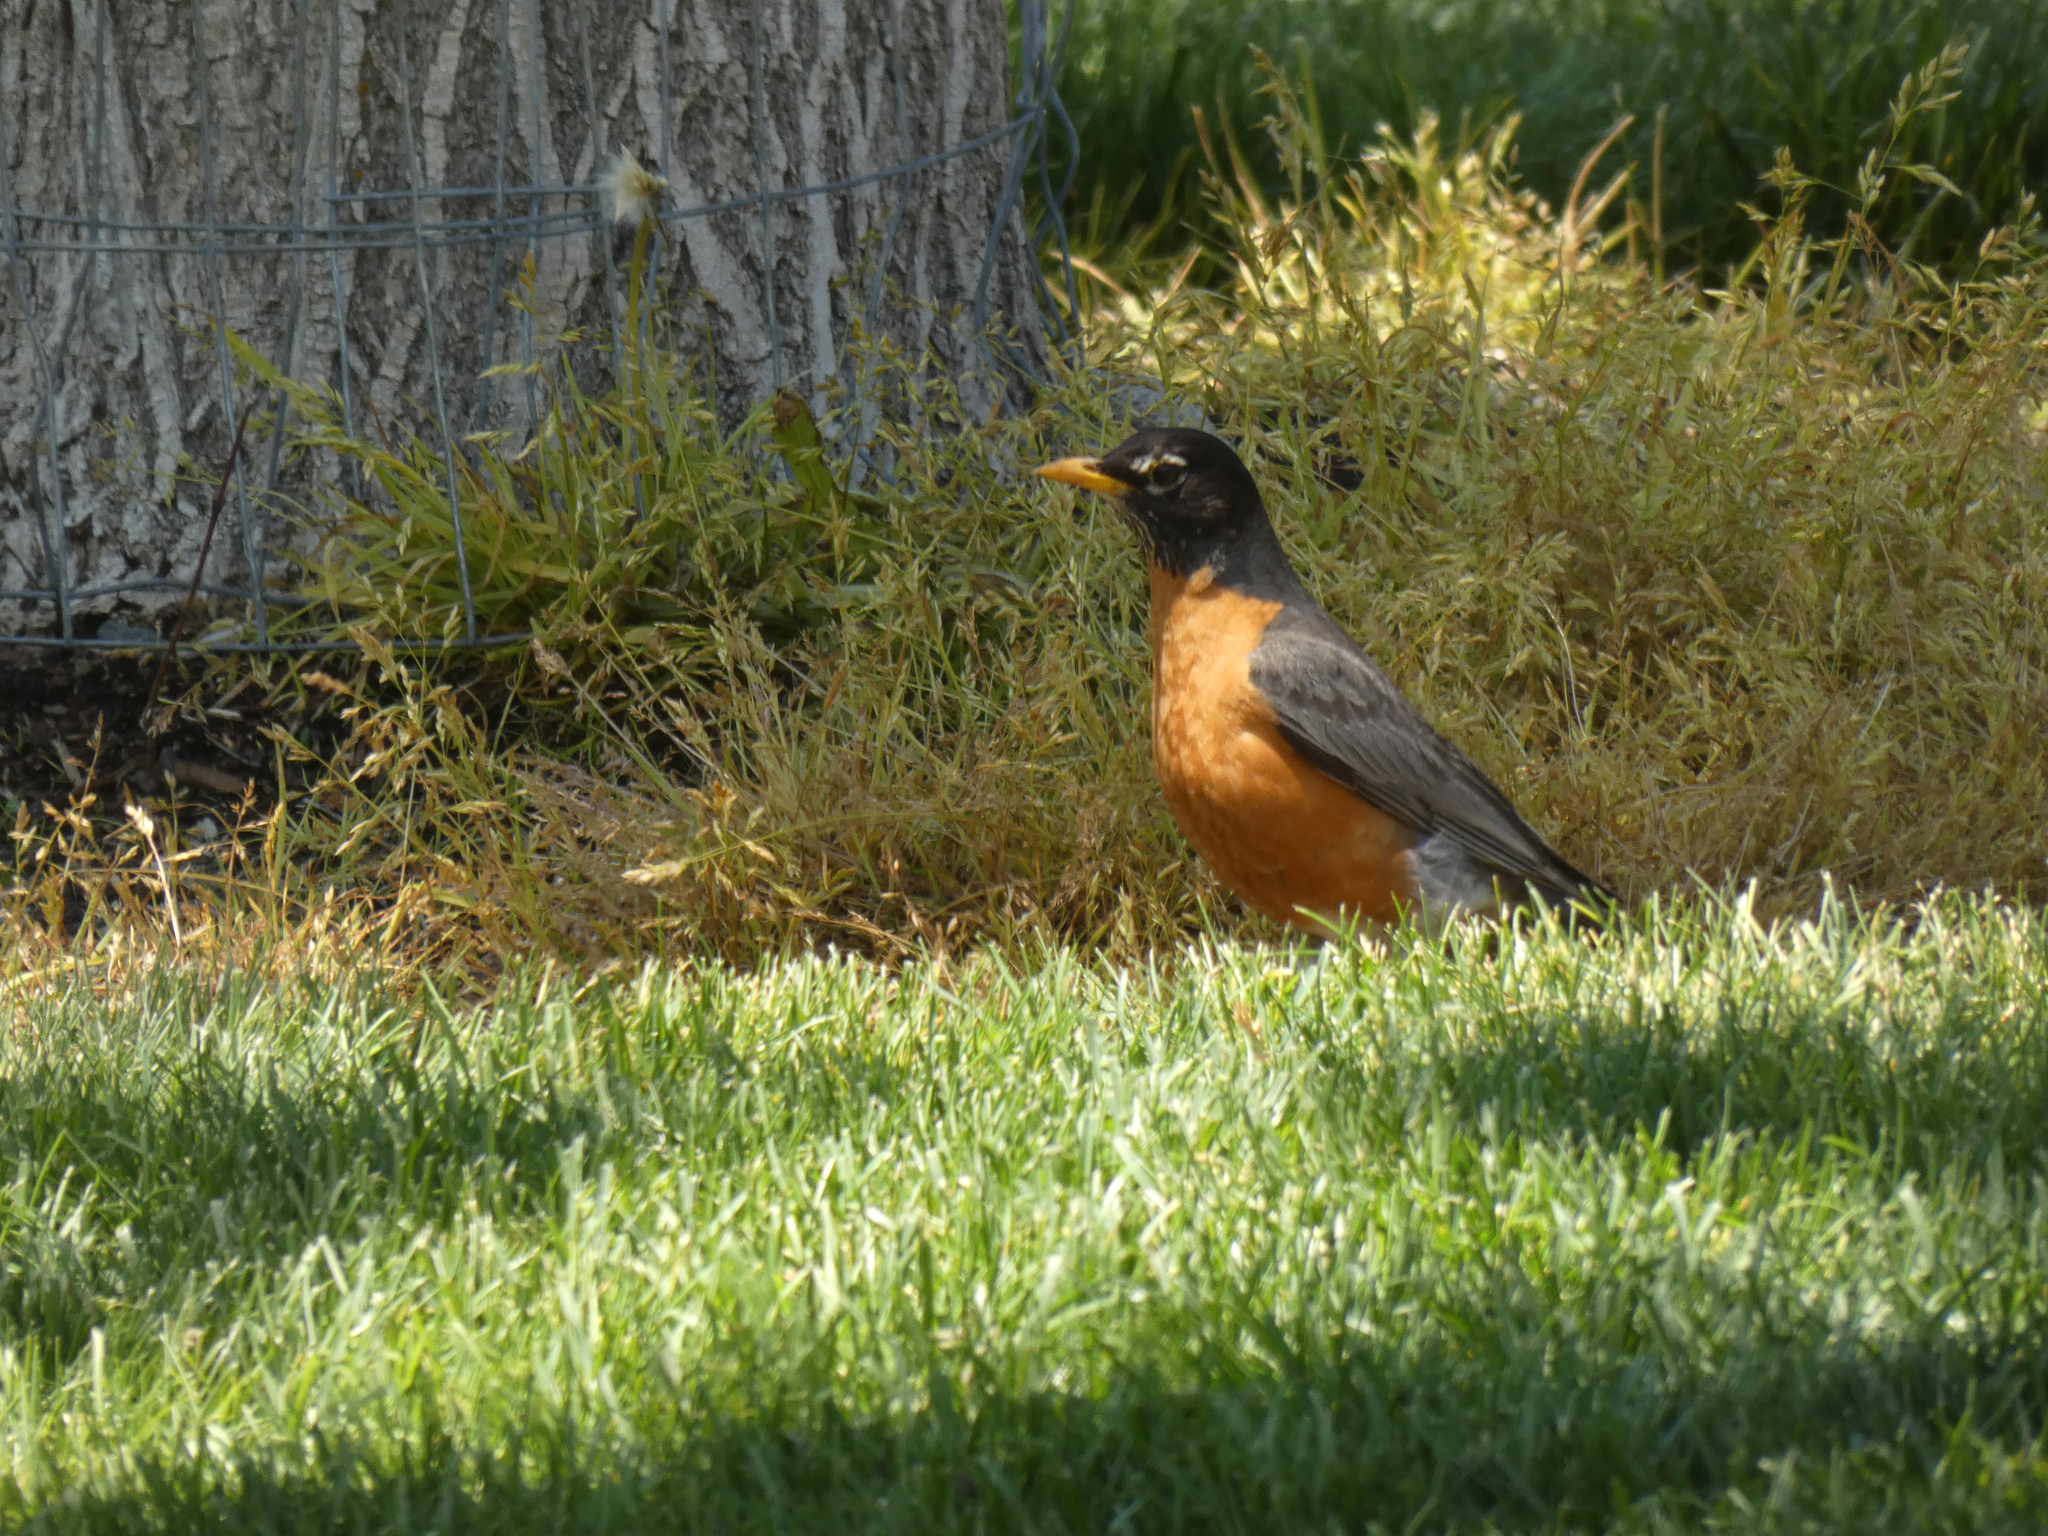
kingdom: Animalia
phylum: Chordata
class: Aves
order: Passeriformes
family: Turdidae
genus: Turdus
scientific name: Turdus migratorius
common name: American robin
